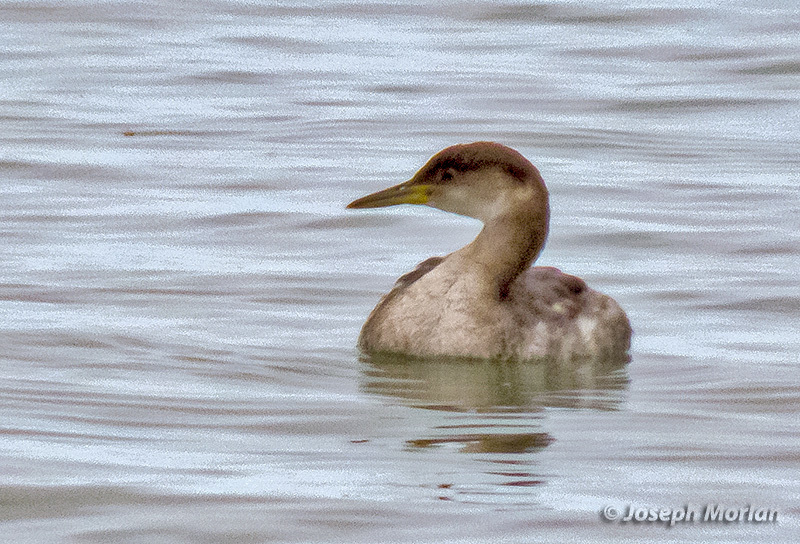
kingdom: Animalia
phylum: Chordata
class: Aves
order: Podicipediformes
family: Podicipedidae
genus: Podiceps
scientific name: Podiceps grisegena
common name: Red-necked grebe
